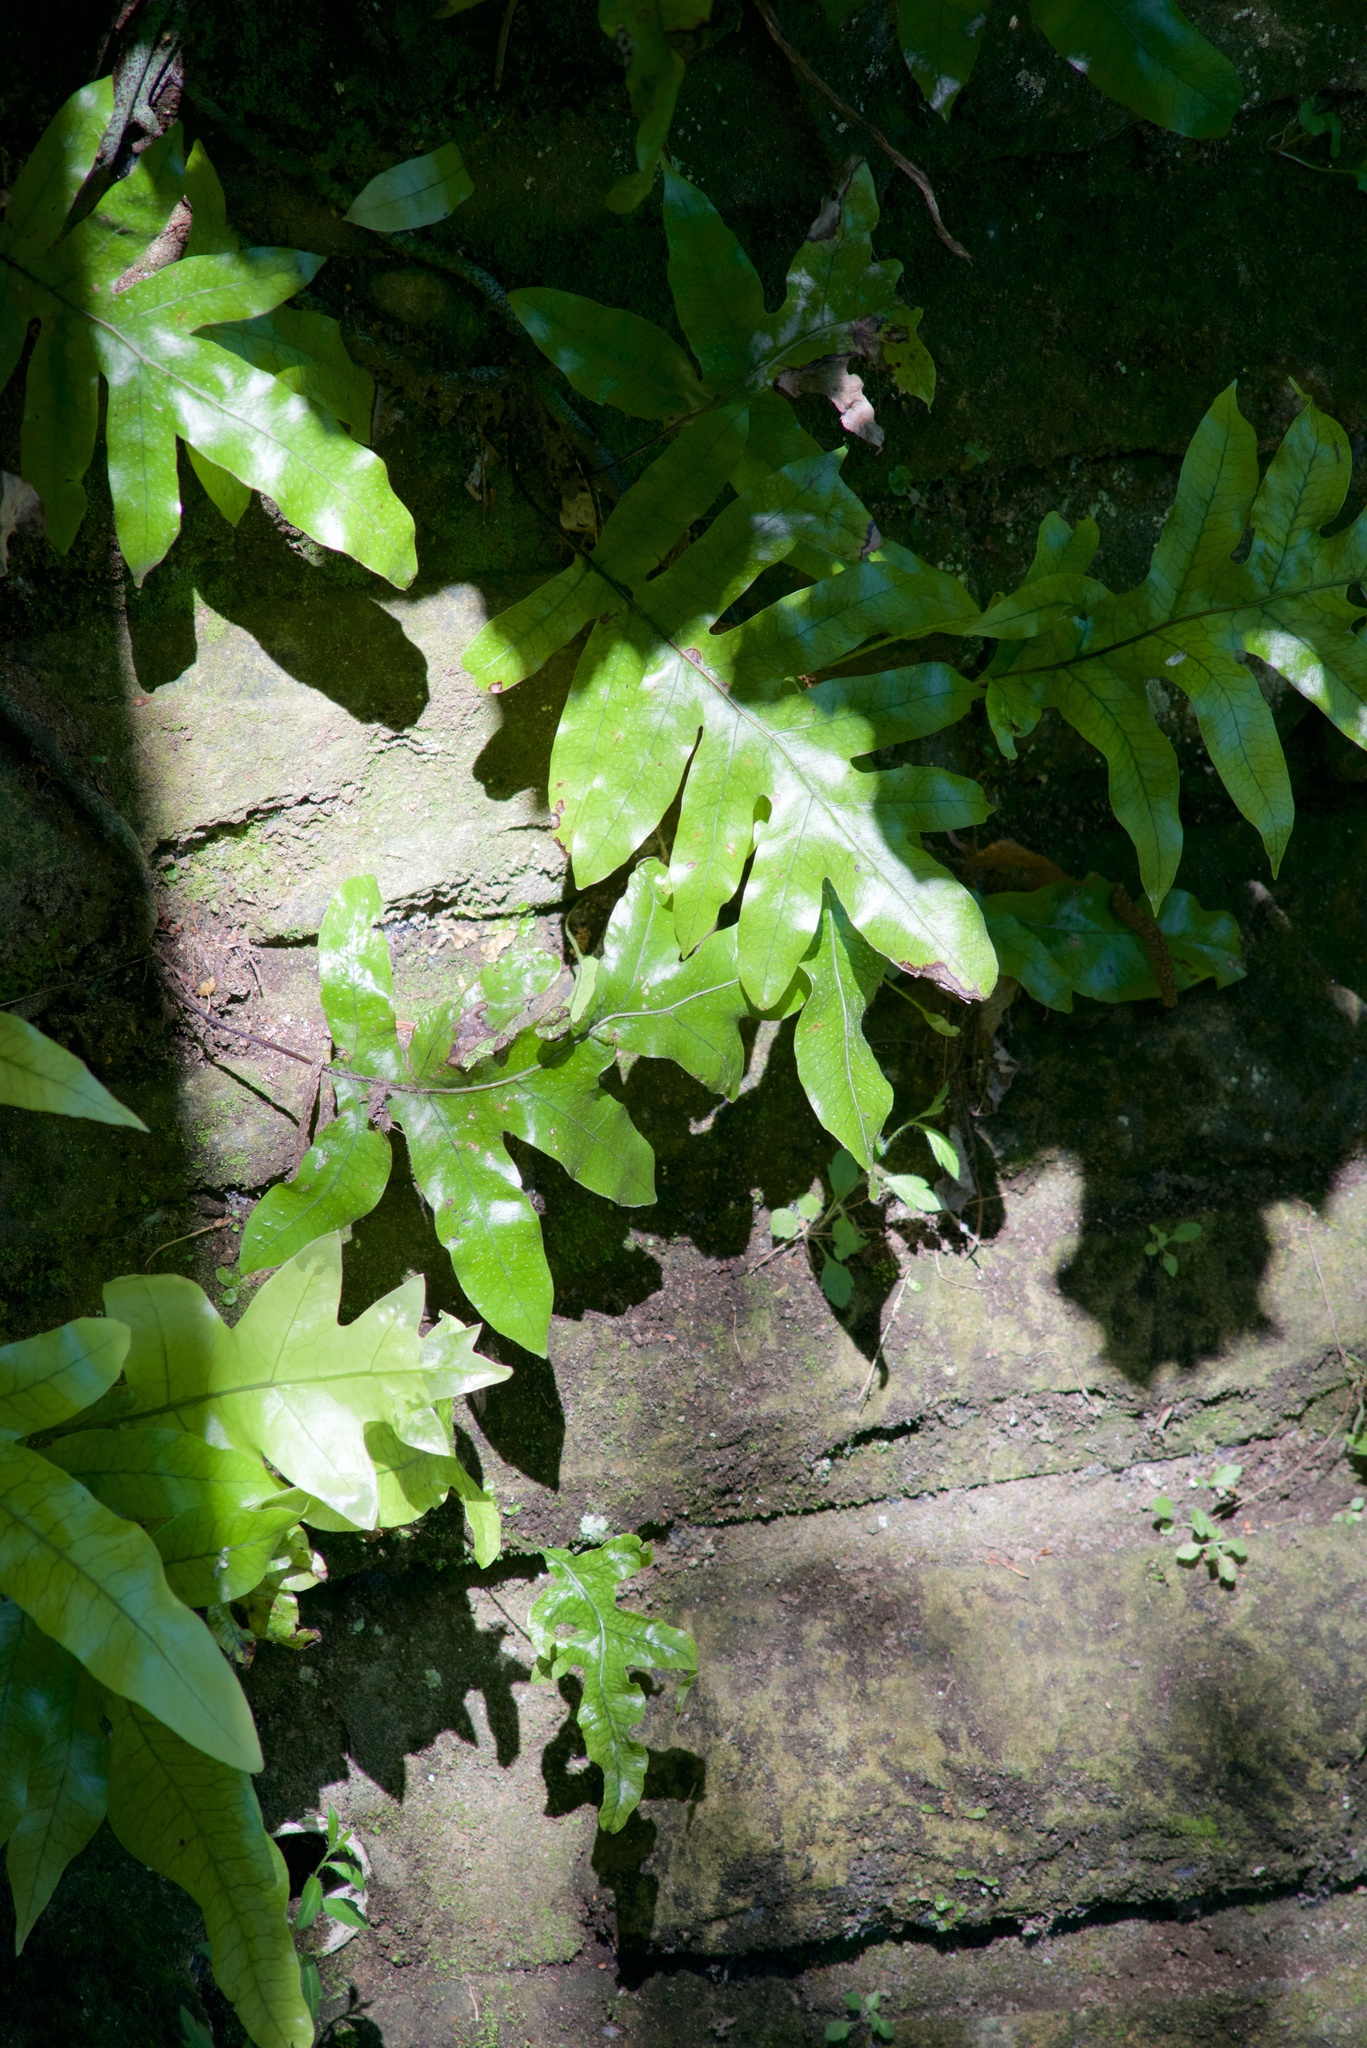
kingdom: Plantae
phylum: Tracheophyta
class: Polypodiopsida
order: Polypodiales
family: Polypodiaceae
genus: Lecanopteris
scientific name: Lecanopteris pustulata
